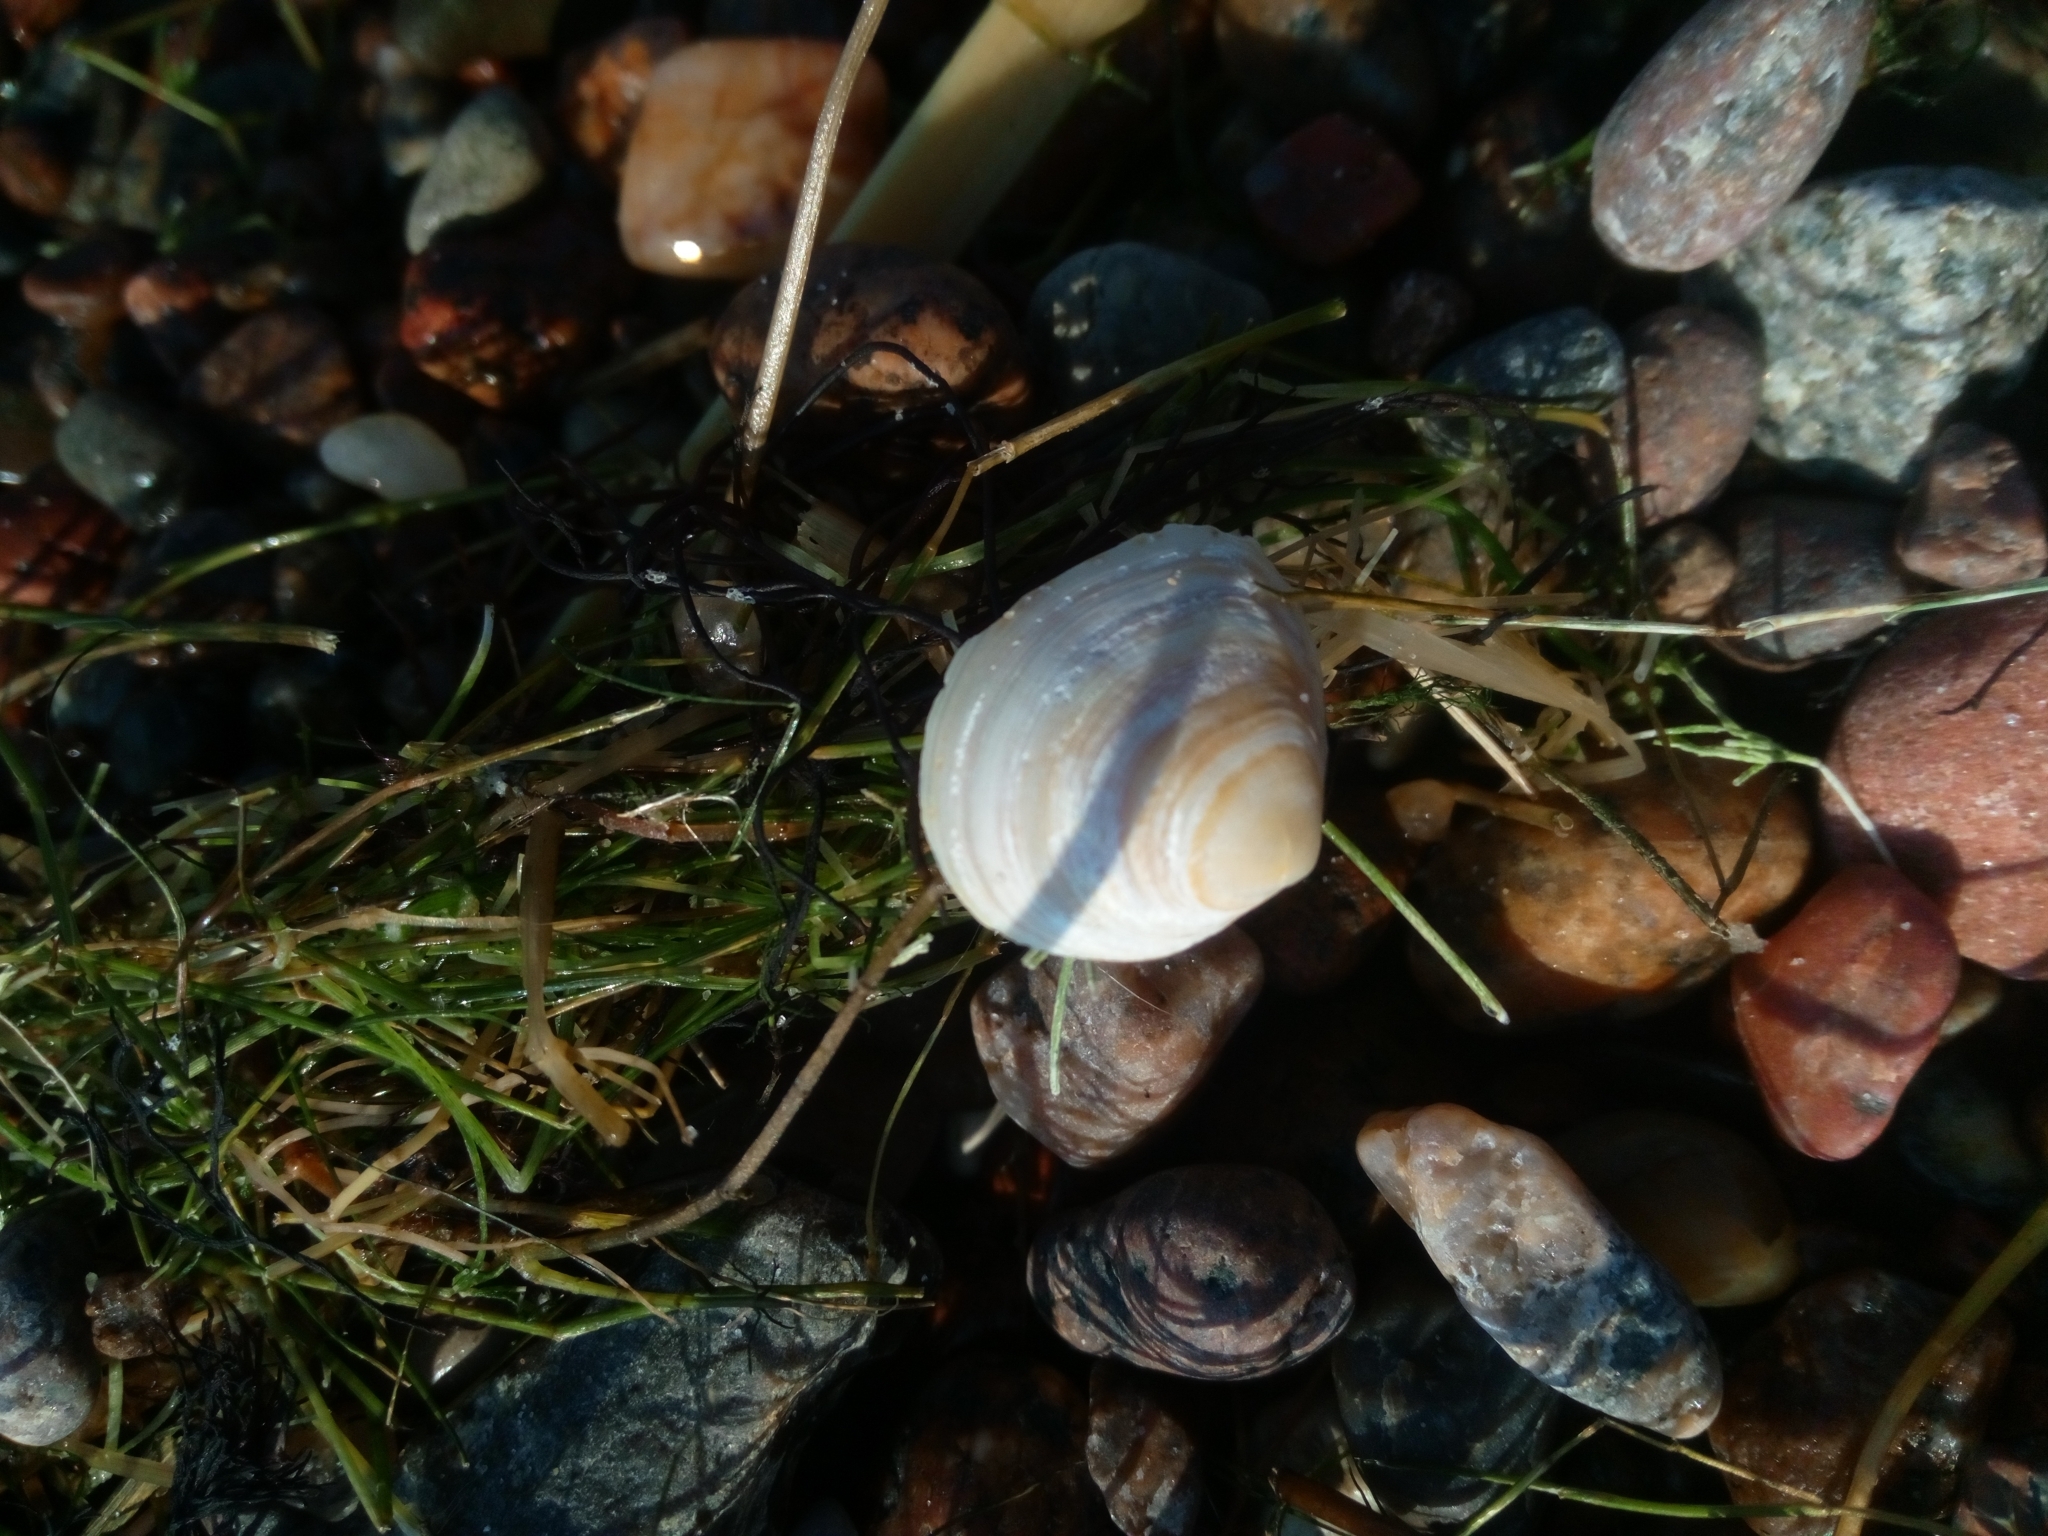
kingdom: Animalia
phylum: Mollusca
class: Bivalvia
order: Cardiida
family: Tellinidae
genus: Macoma
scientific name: Macoma balthica
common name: Baltic tellin
